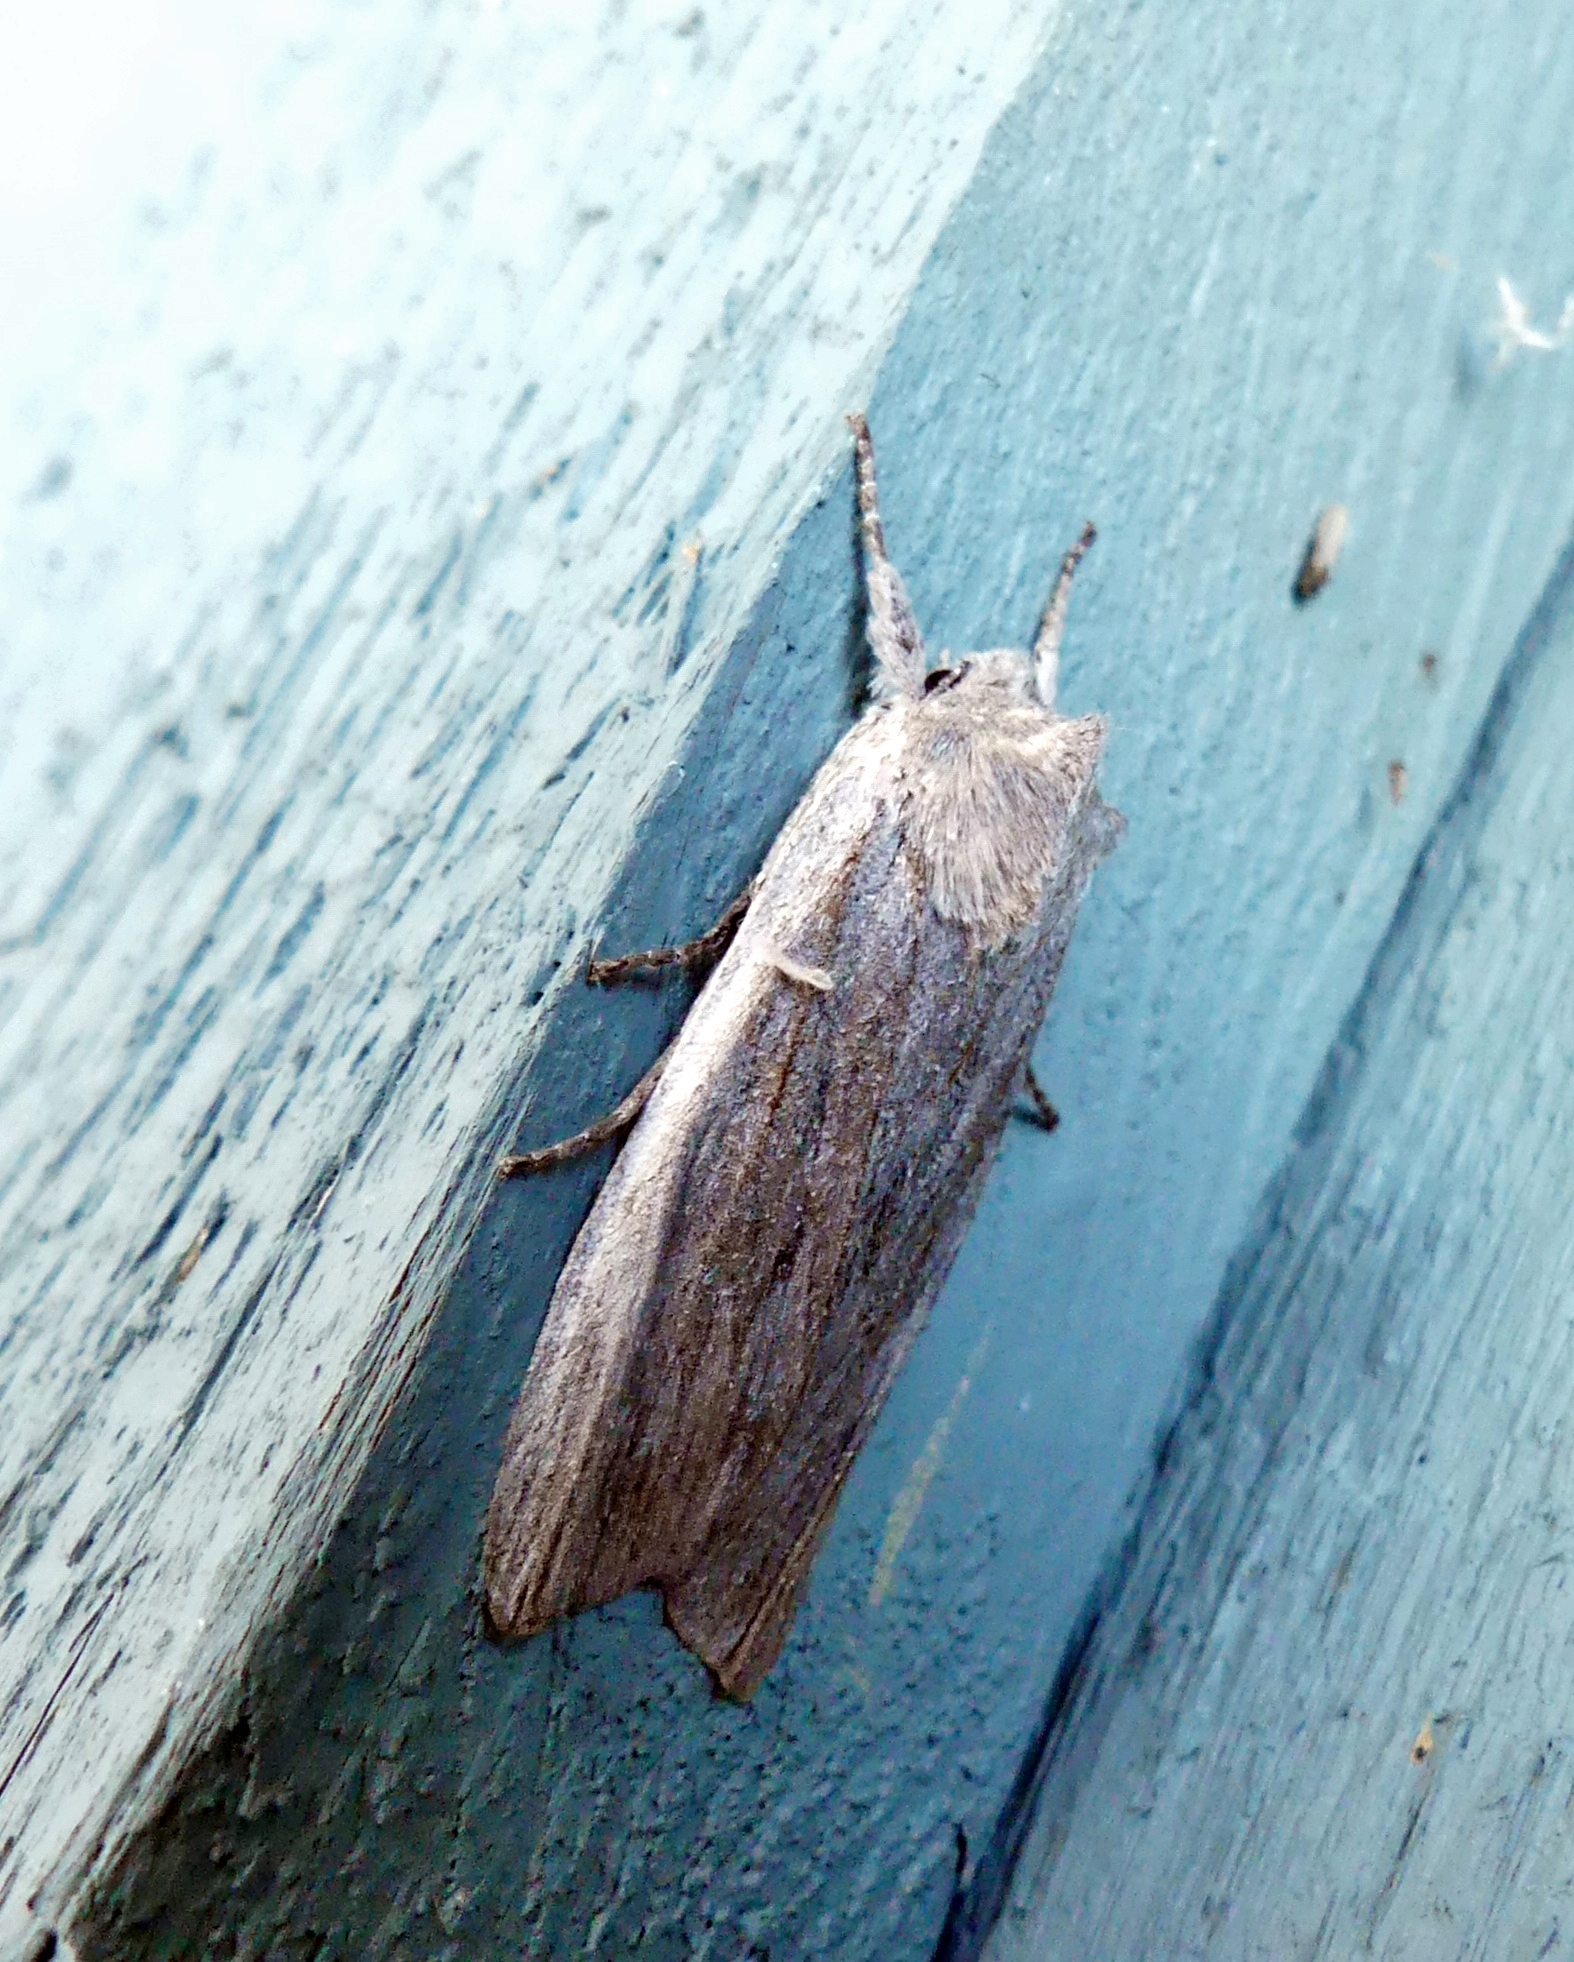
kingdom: Animalia
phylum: Arthropoda
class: Insecta
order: Lepidoptera
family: Noctuidae
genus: Lithophane
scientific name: Lithophane fagina
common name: Hoary pinion moth
